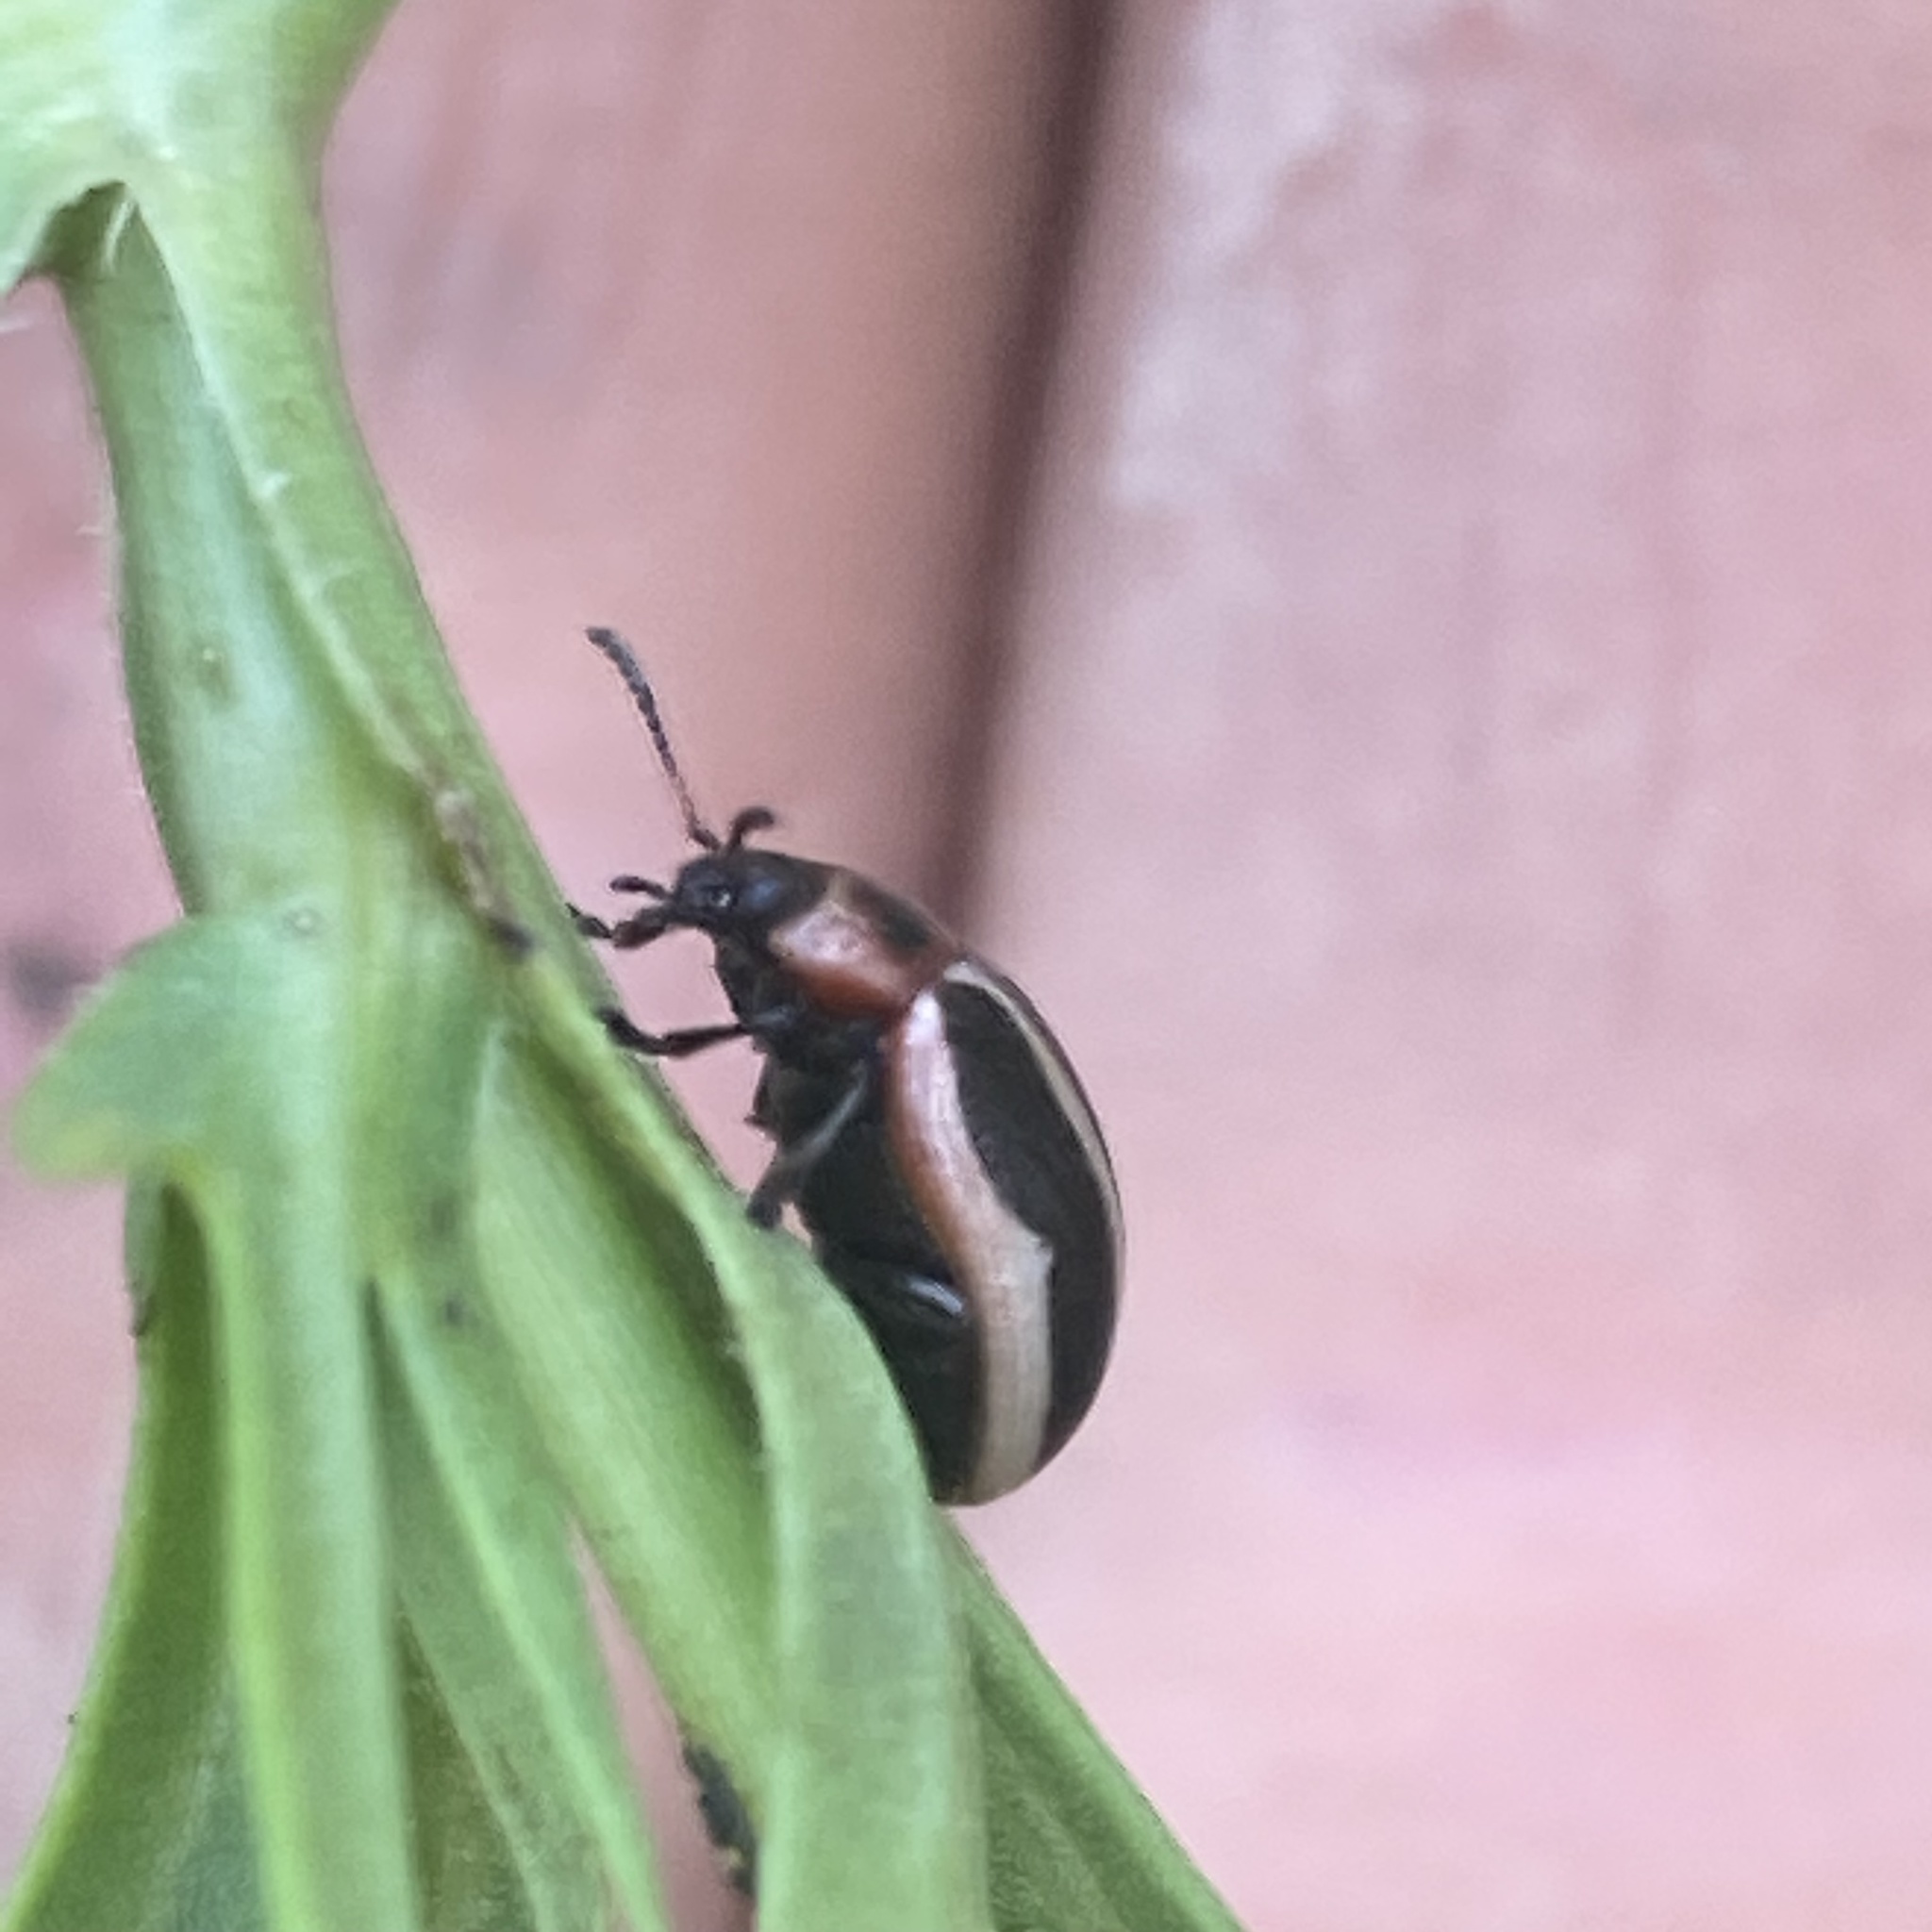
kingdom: Animalia
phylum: Arthropoda
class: Insecta
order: Coleoptera
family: Chrysomelidae
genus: Calligrapha
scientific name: Calligrapha californica
